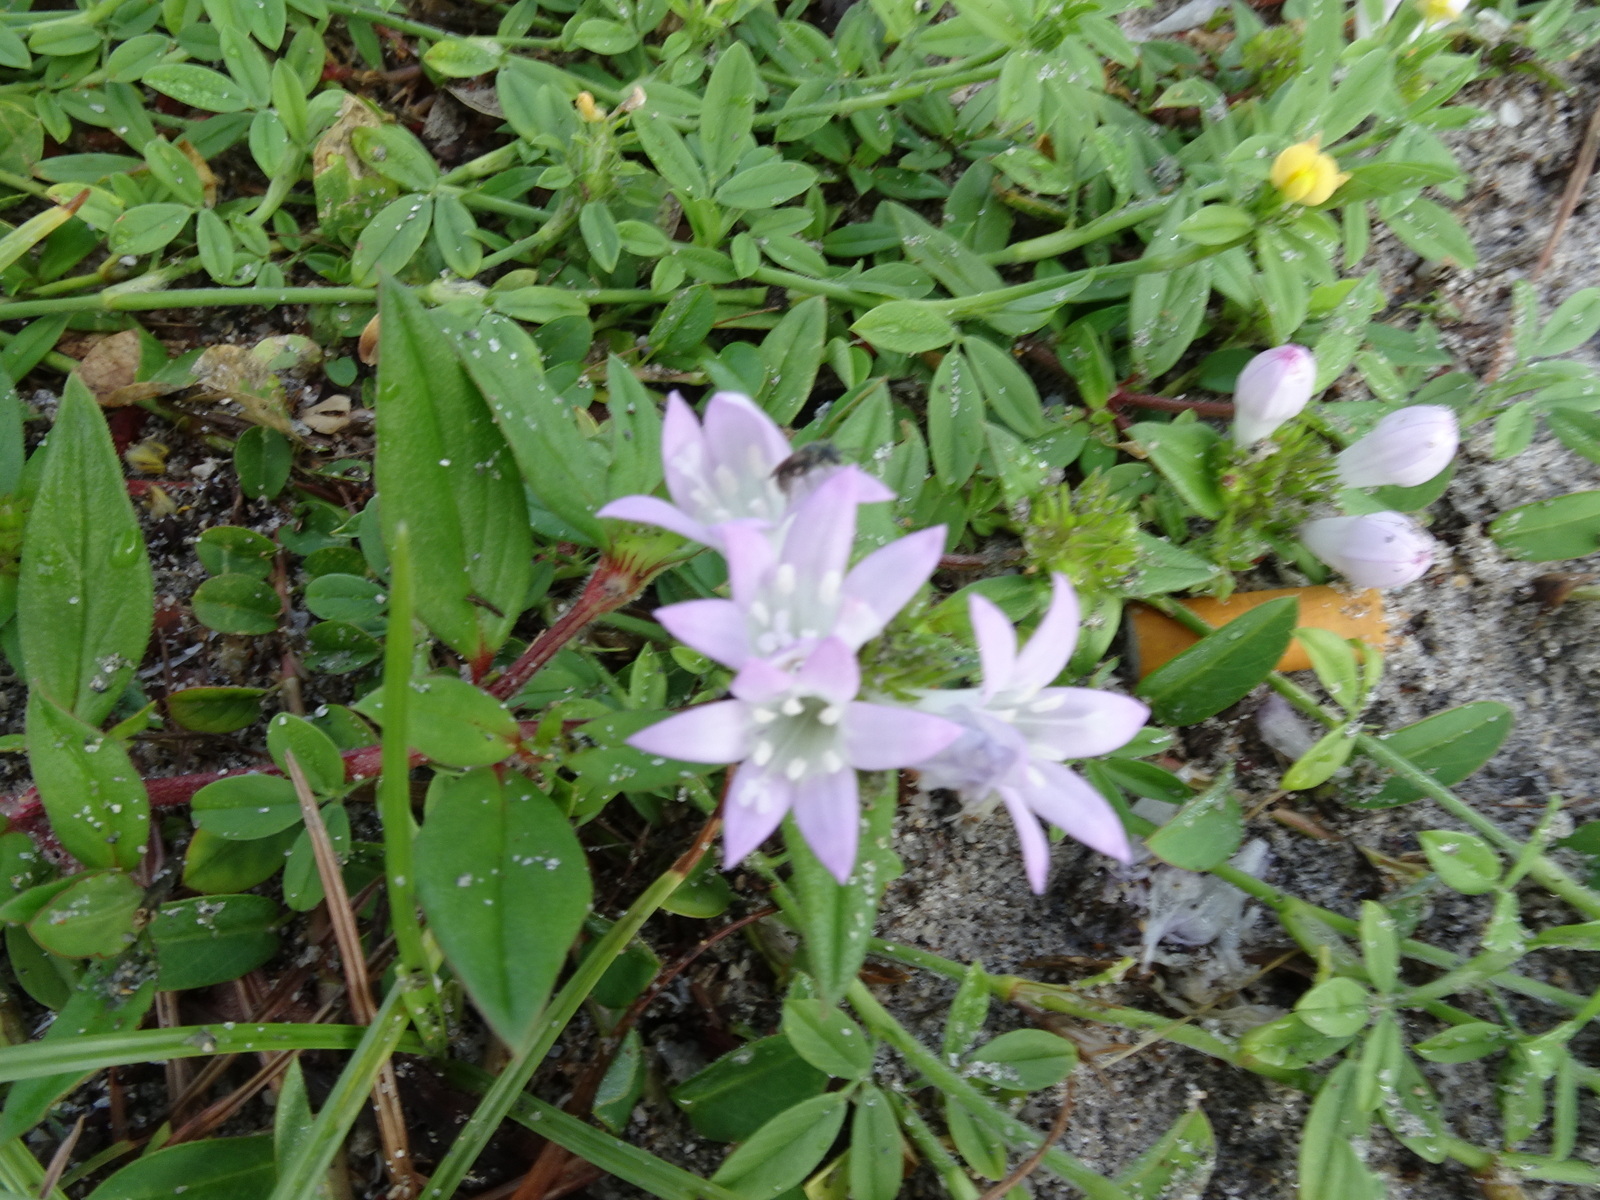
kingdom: Plantae
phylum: Tracheophyta
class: Magnoliopsida
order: Gentianales
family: Rubiaceae
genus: Richardia
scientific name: Richardia grandiflora
